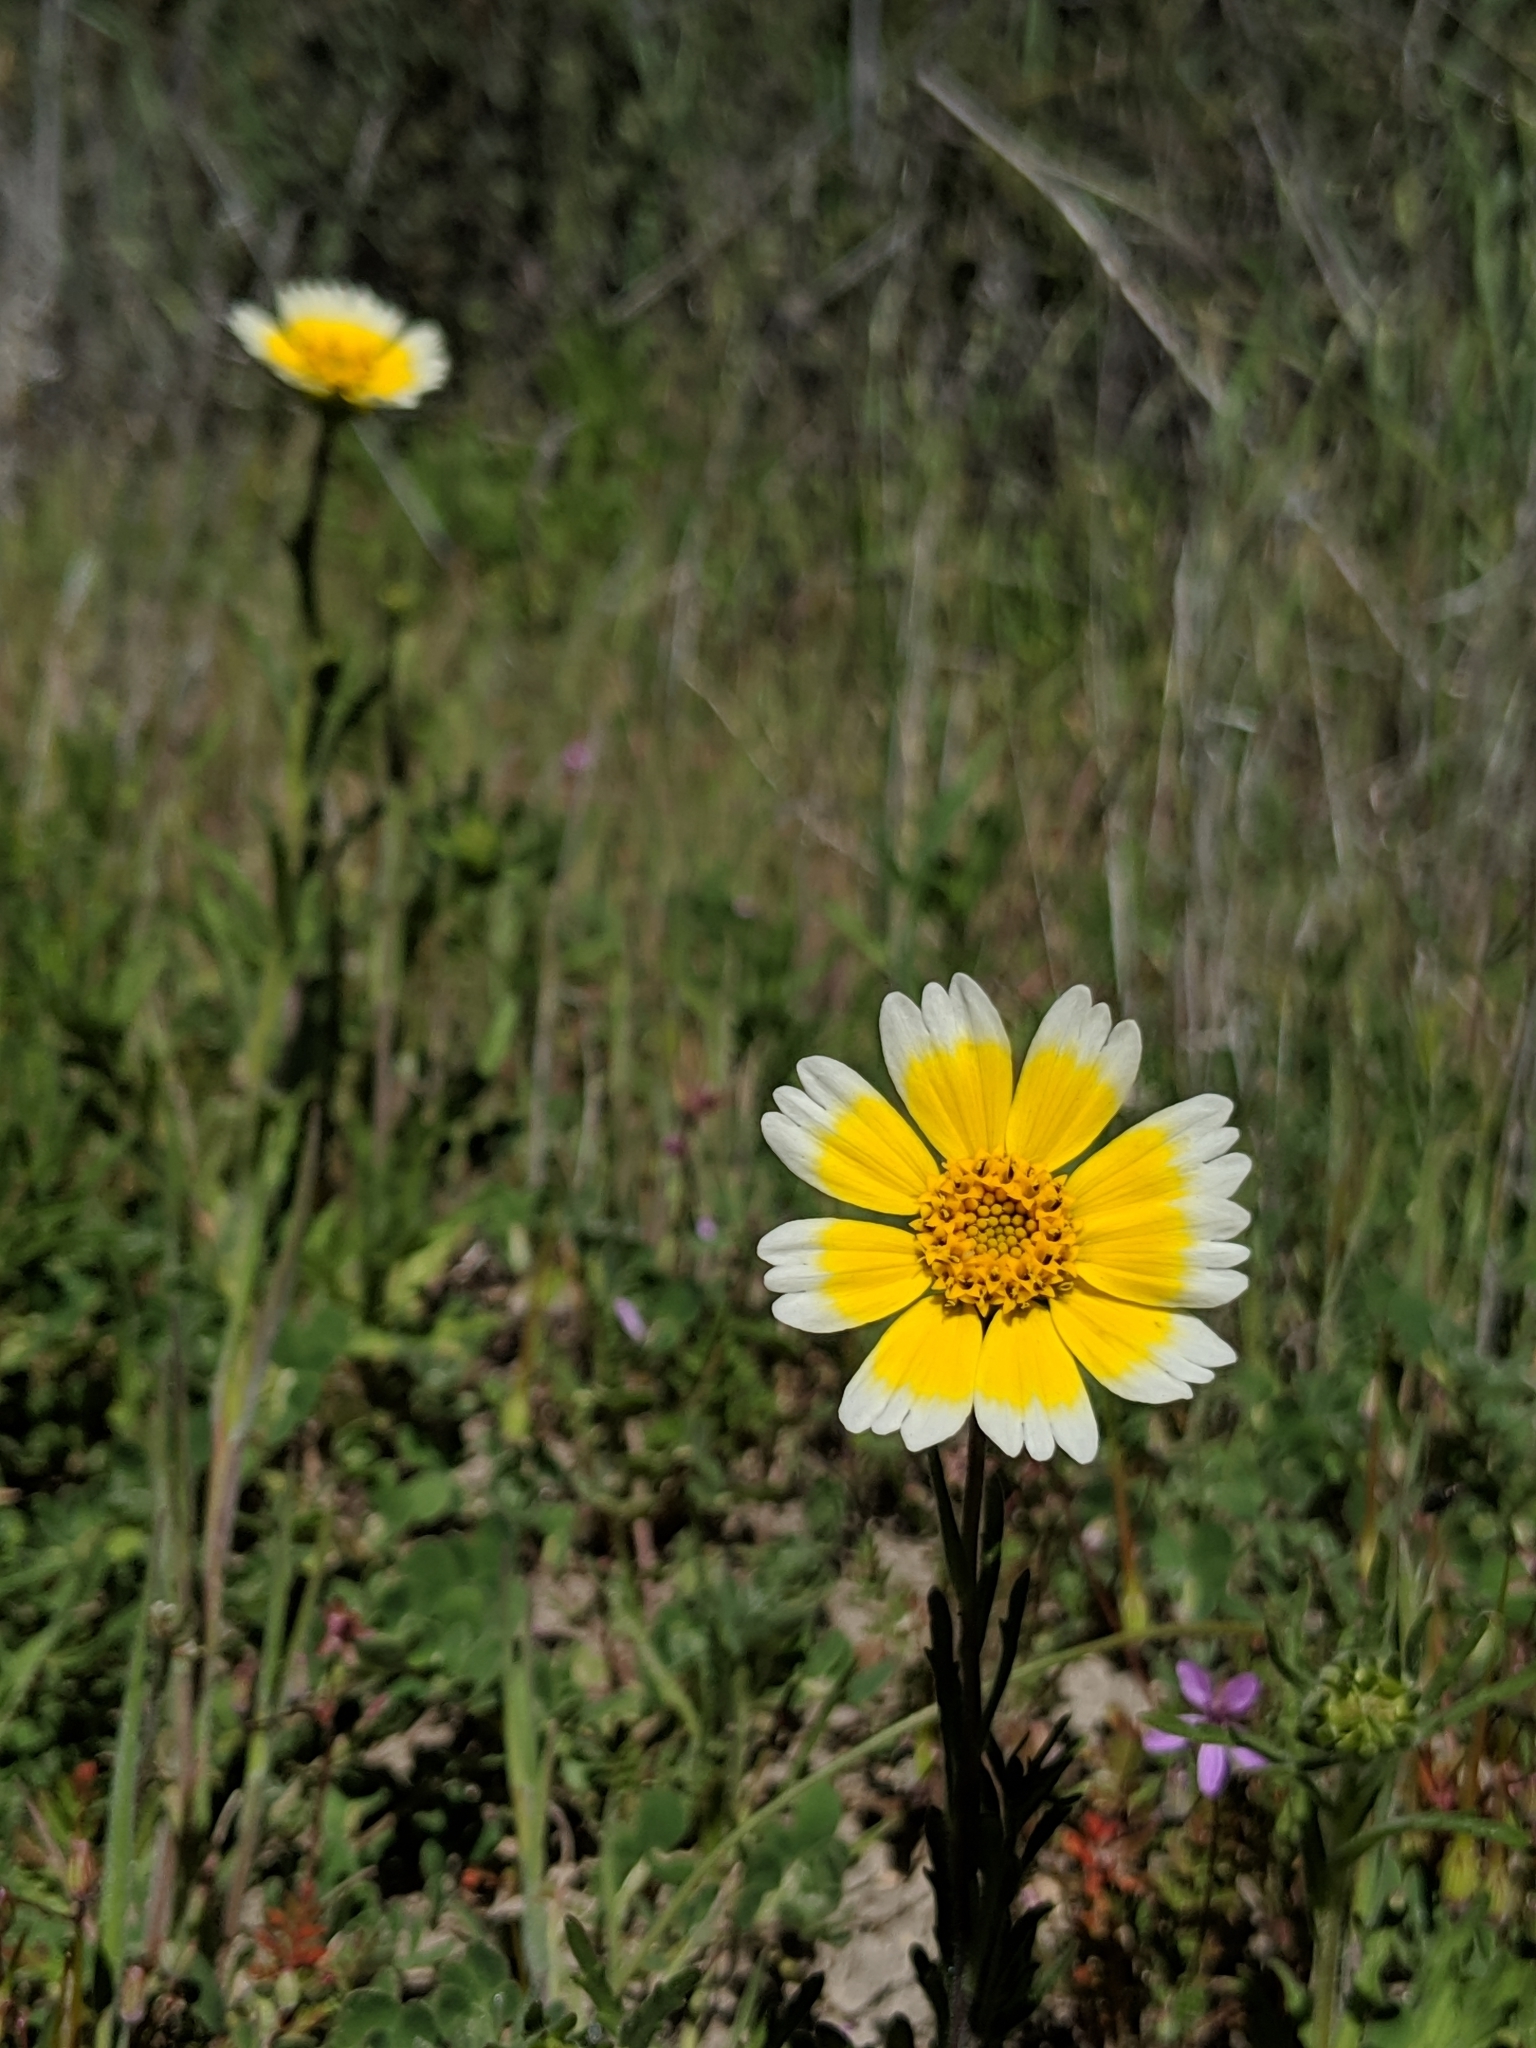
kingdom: Plantae
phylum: Tracheophyta
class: Magnoliopsida
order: Asterales
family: Asteraceae
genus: Layia
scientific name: Layia platyglossa
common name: Tidy-tips
